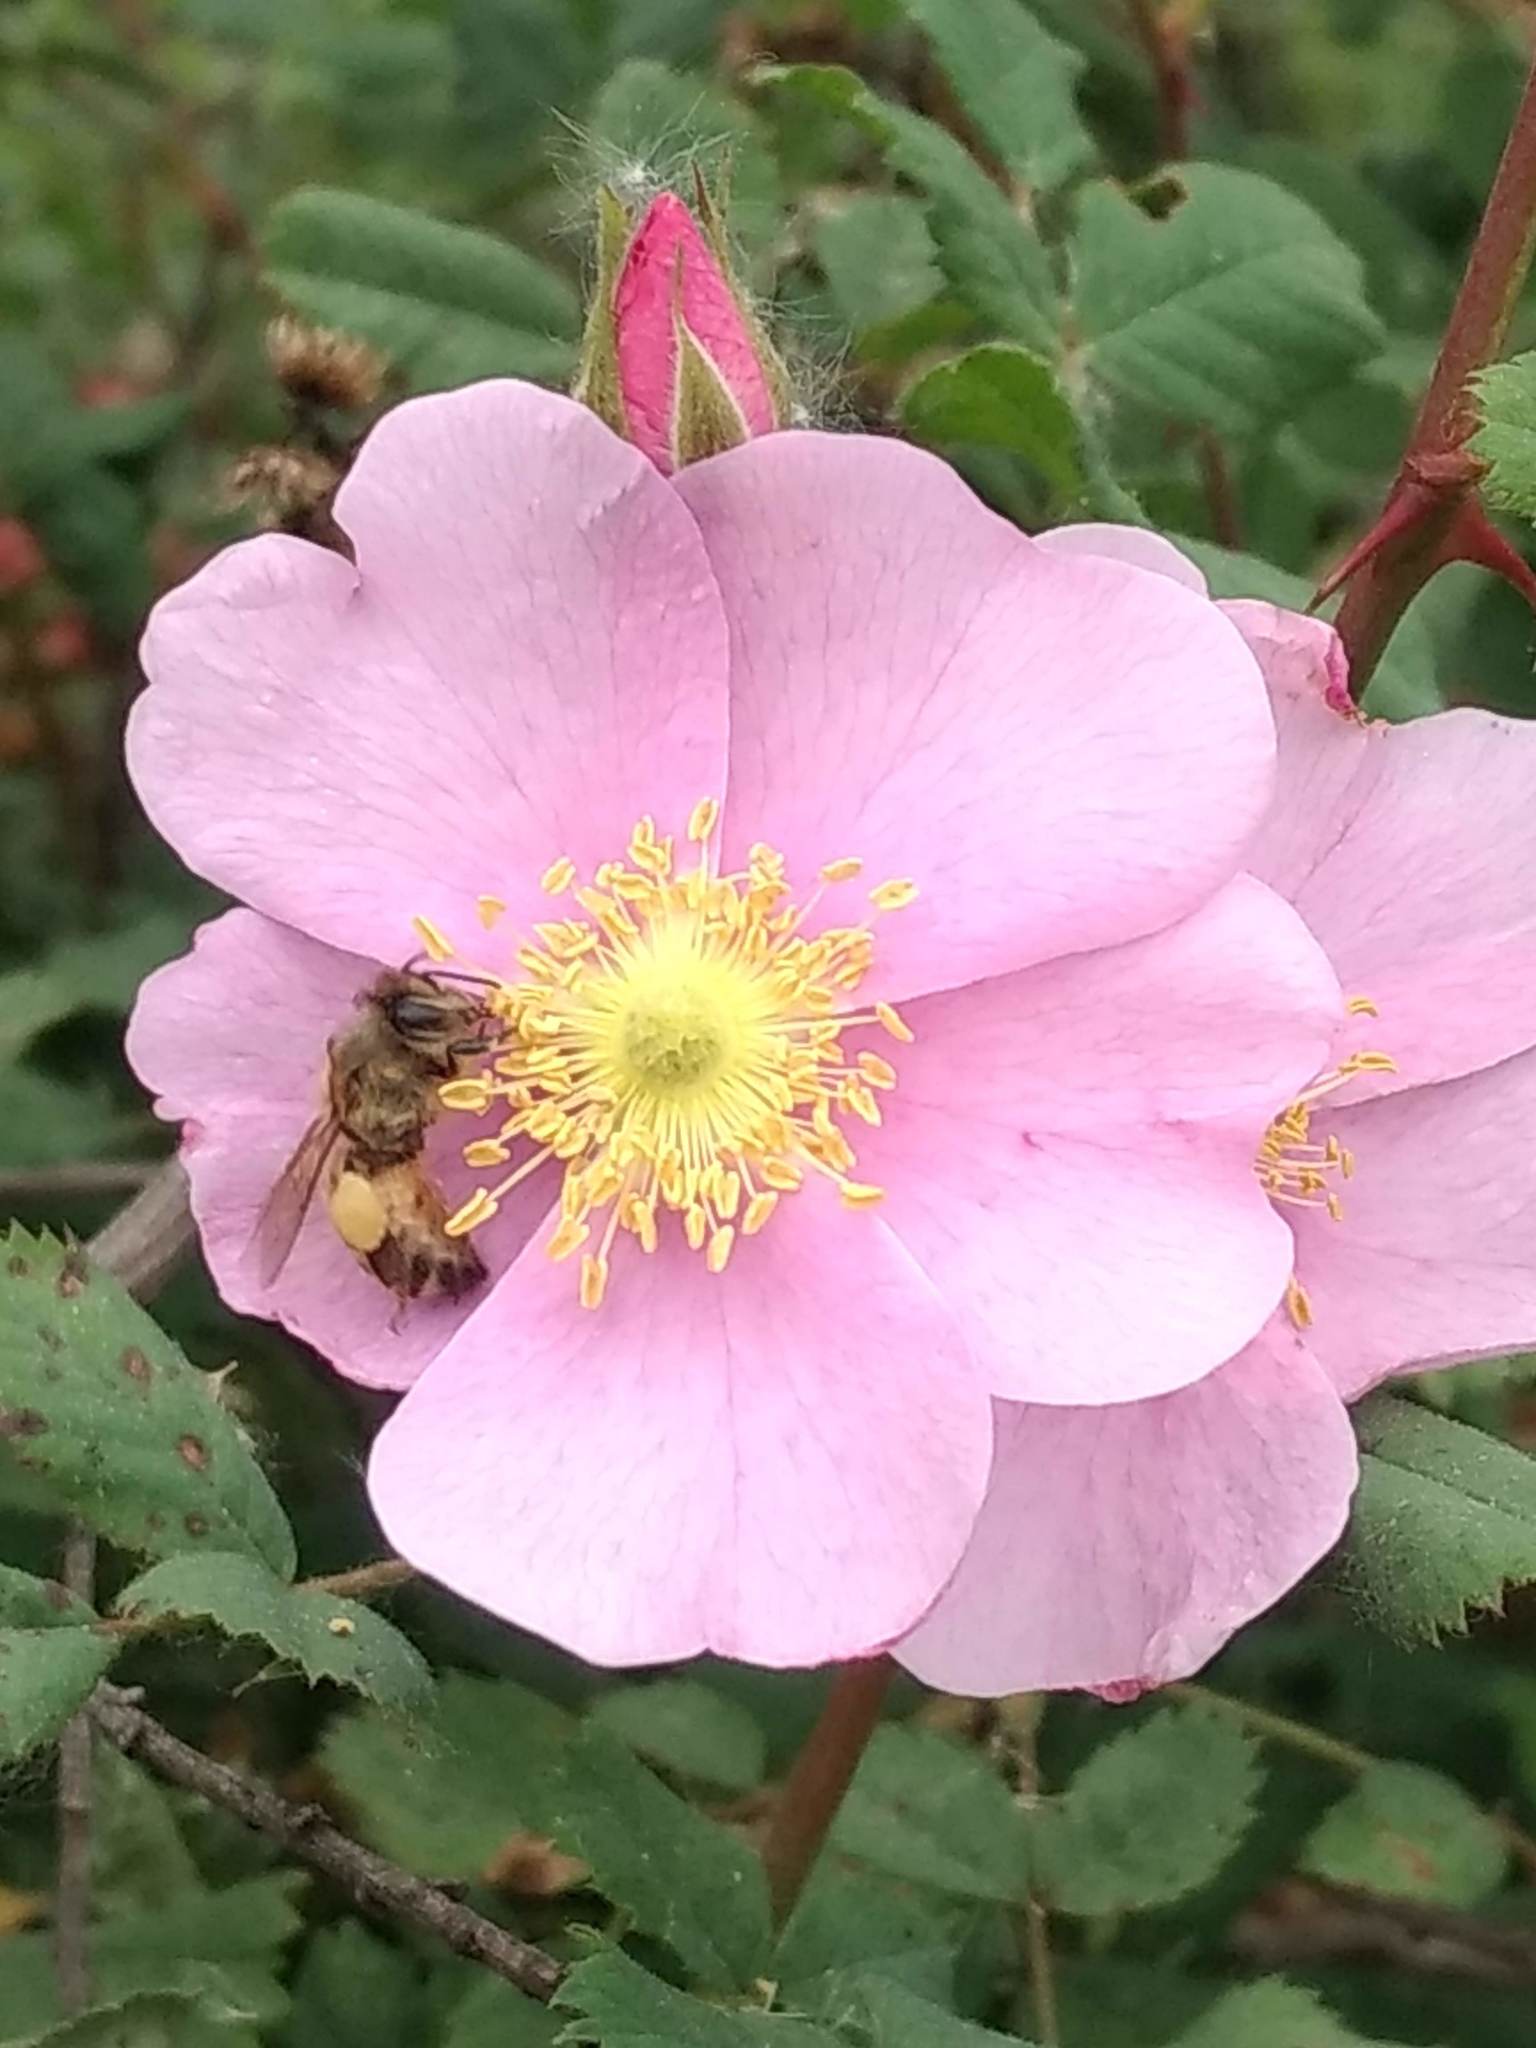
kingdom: Animalia
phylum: Arthropoda
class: Insecta
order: Hymenoptera
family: Apidae
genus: Apis
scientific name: Apis mellifera
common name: Honey bee
